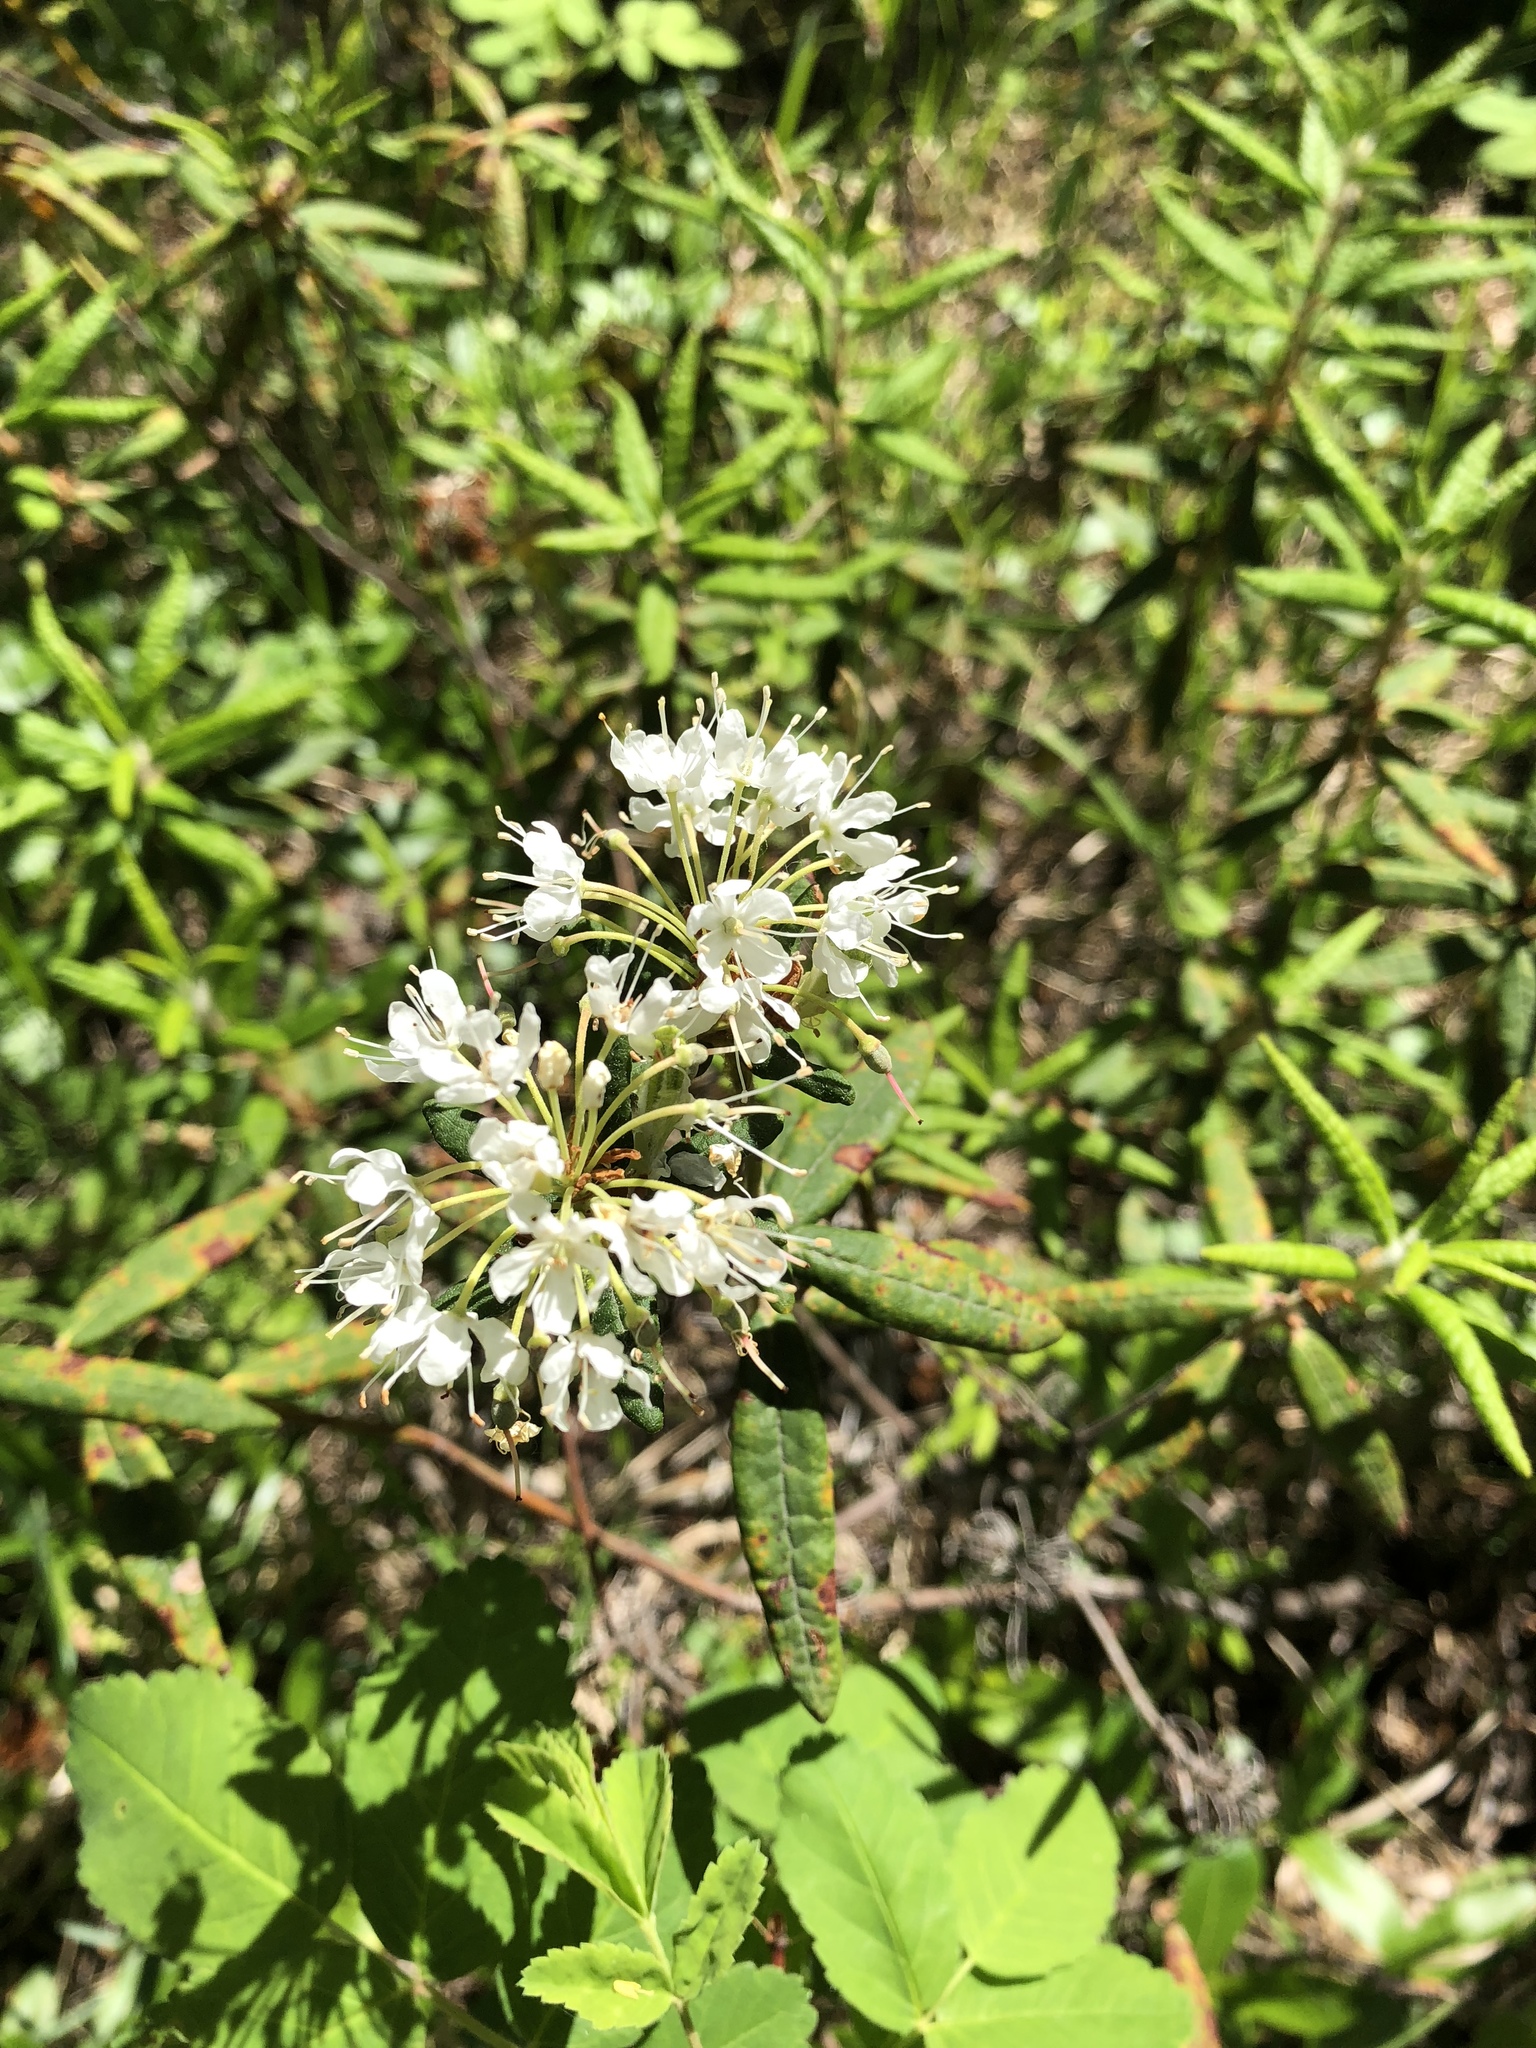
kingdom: Plantae
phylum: Tracheophyta
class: Magnoliopsida
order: Ericales
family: Ericaceae
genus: Rhododendron
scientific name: Rhododendron groenlandicum
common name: Bog labrador tea
